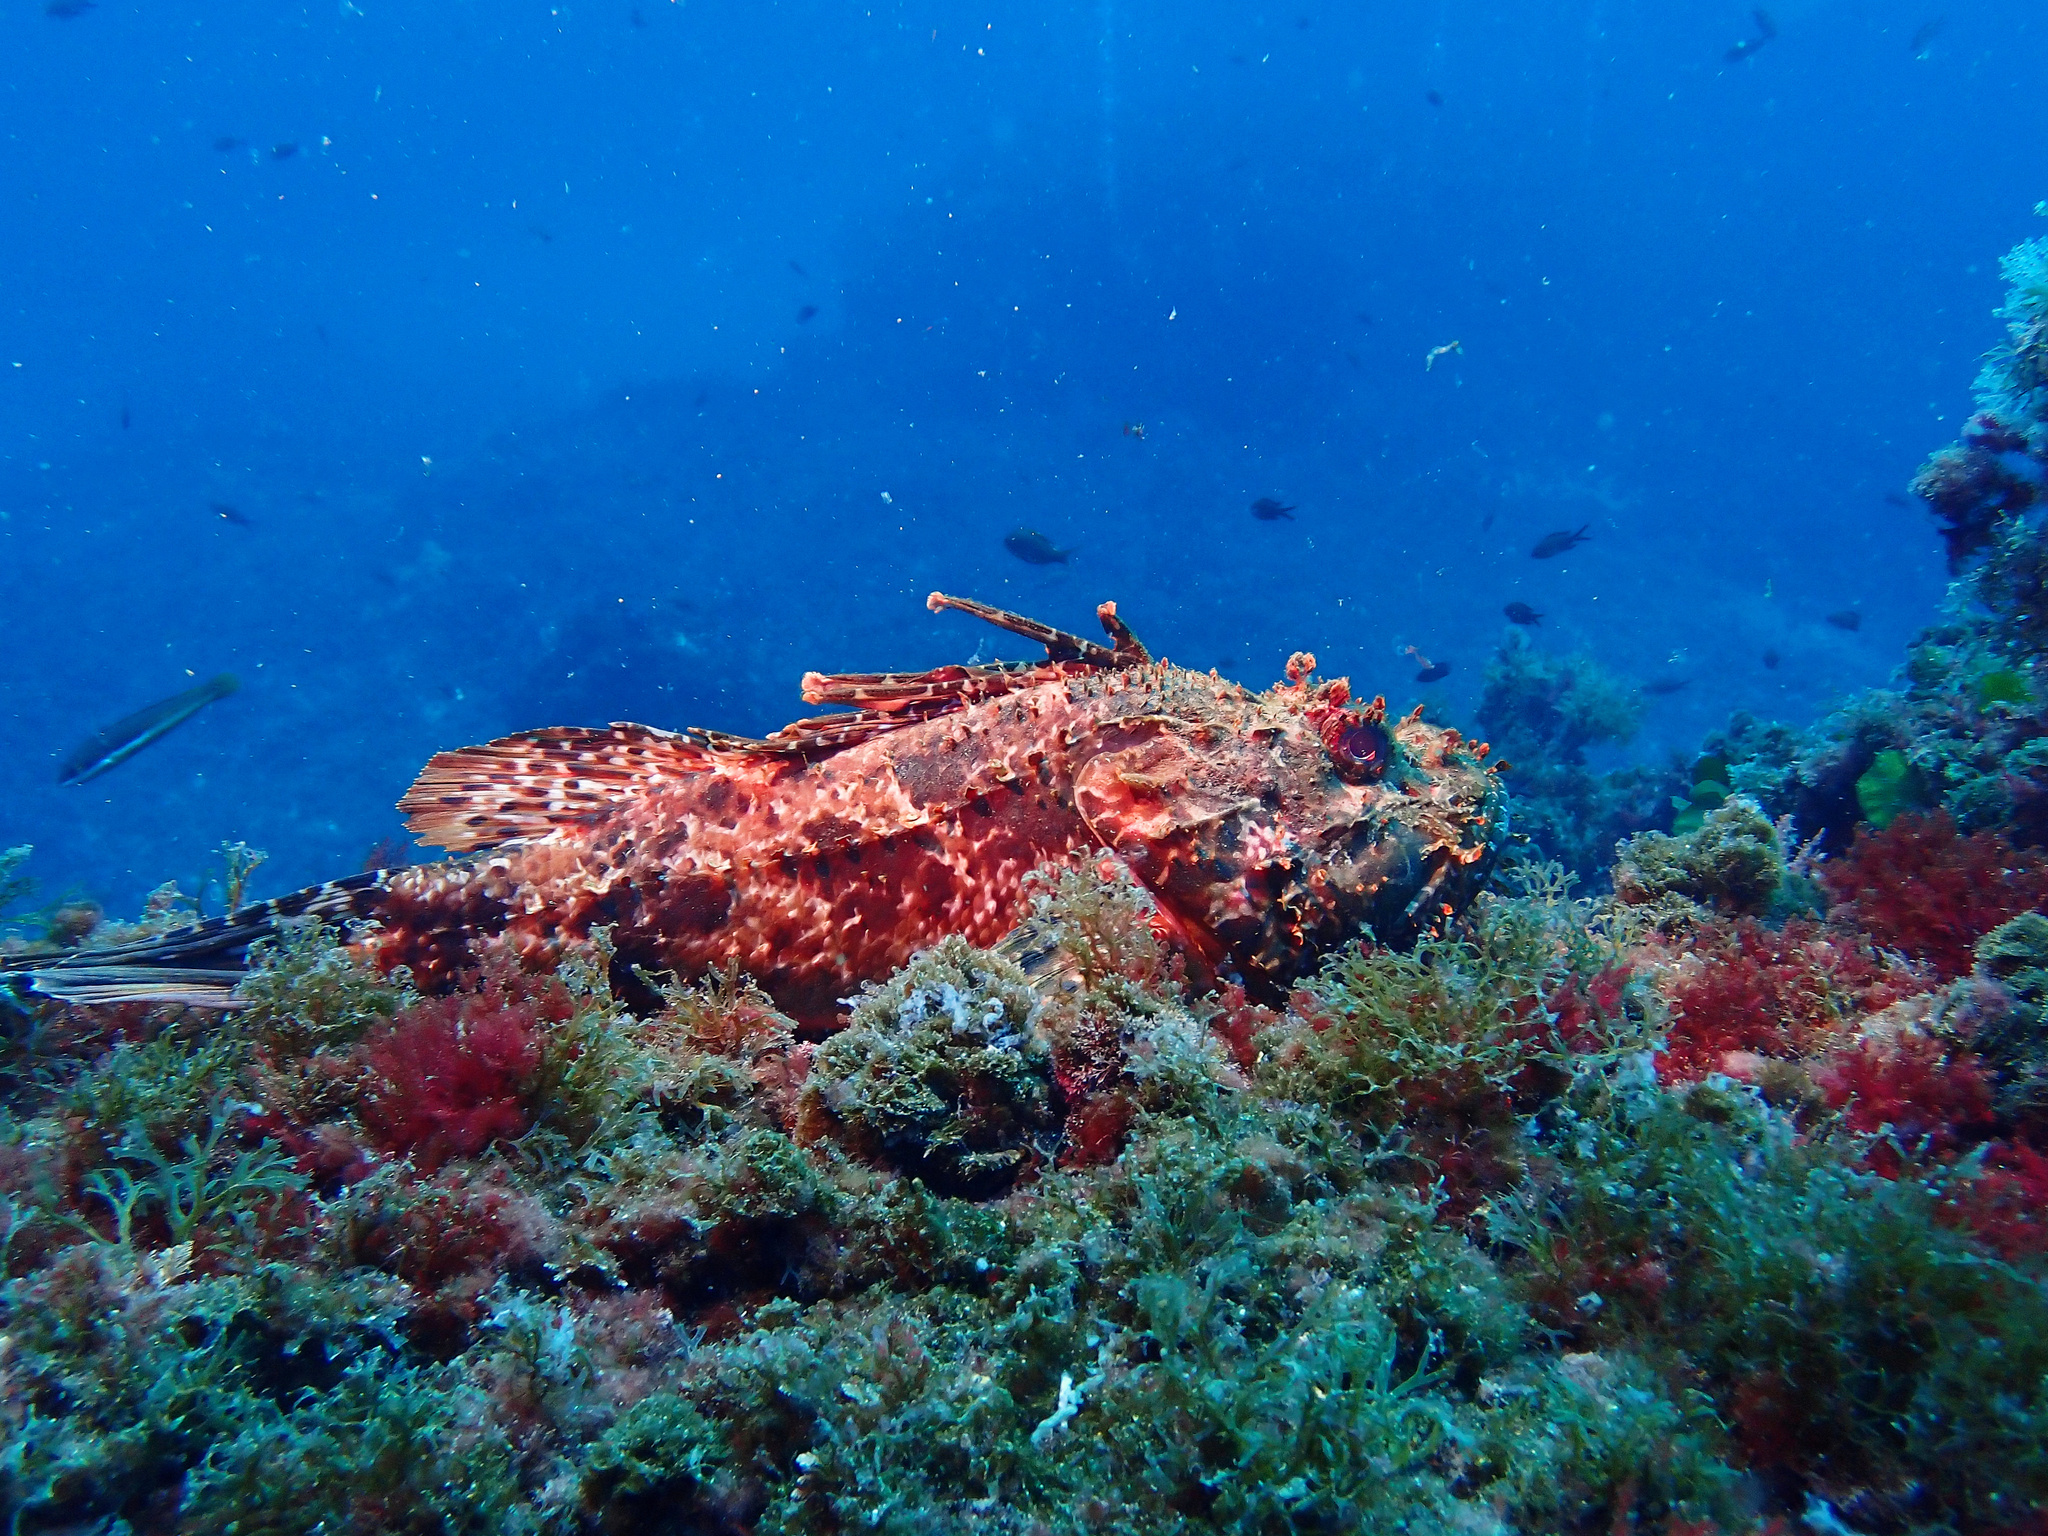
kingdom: Animalia
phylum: Chordata
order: Scorpaeniformes
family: Scorpaenidae
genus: Scorpaena
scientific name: Scorpaena scrofa
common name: Red scorpionfish
